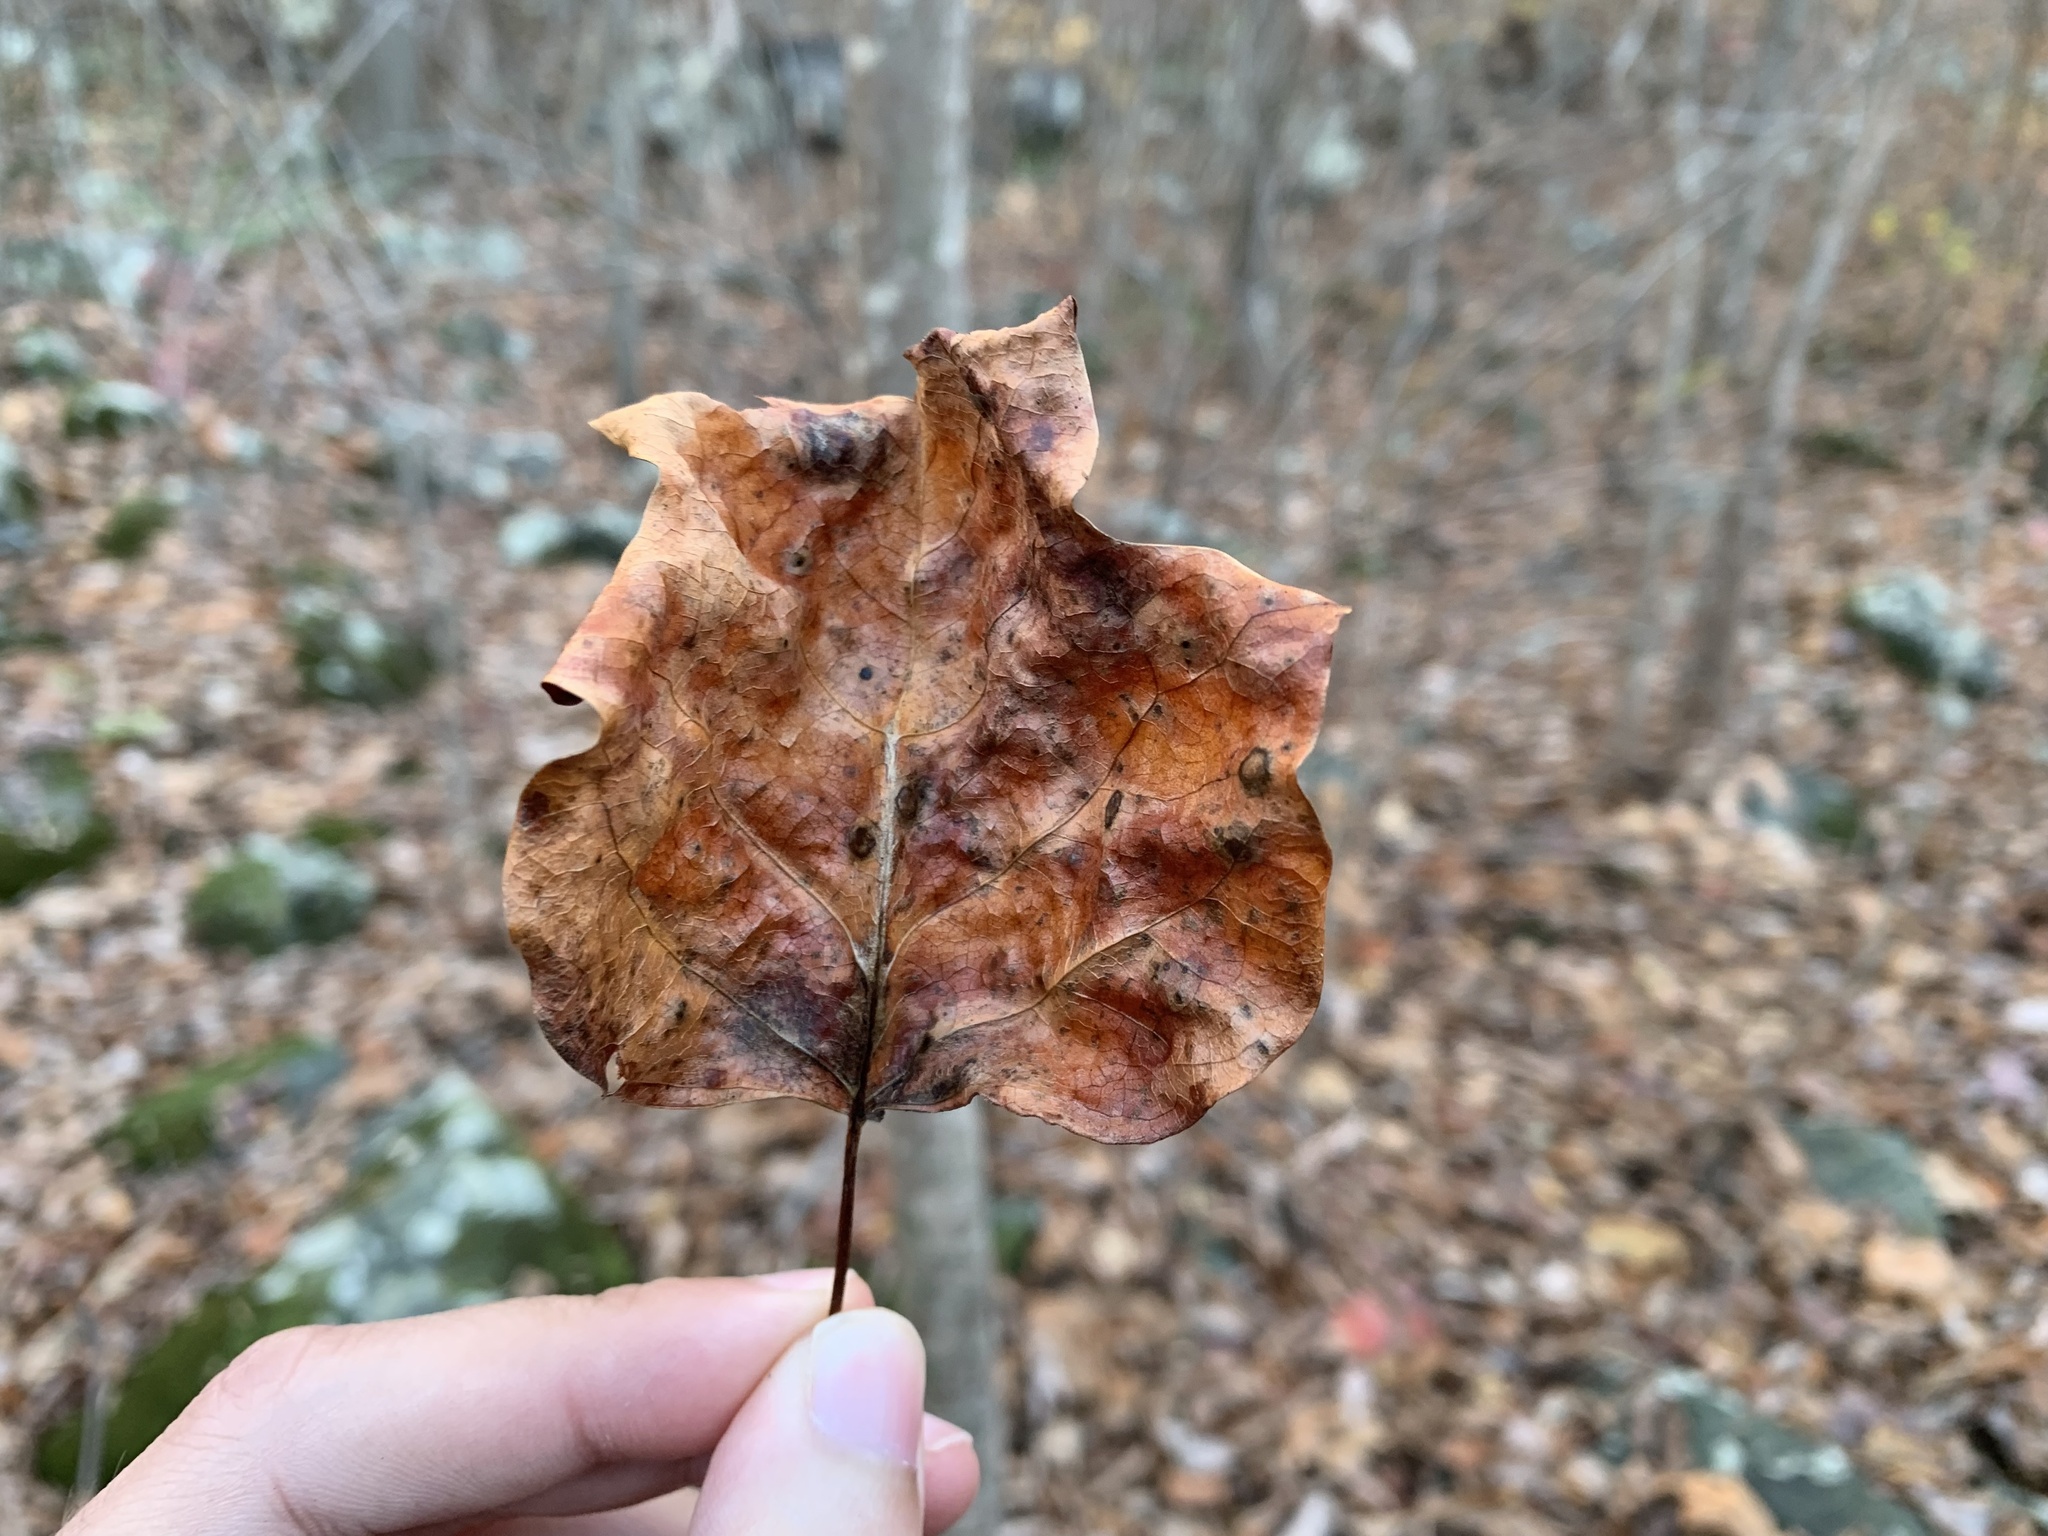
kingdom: Animalia
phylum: Arthropoda
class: Insecta
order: Lepidoptera
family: Gracillariidae
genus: Phyllocnistis
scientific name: Phyllocnistis liriodendronella
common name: Tulip tree leaf miner
